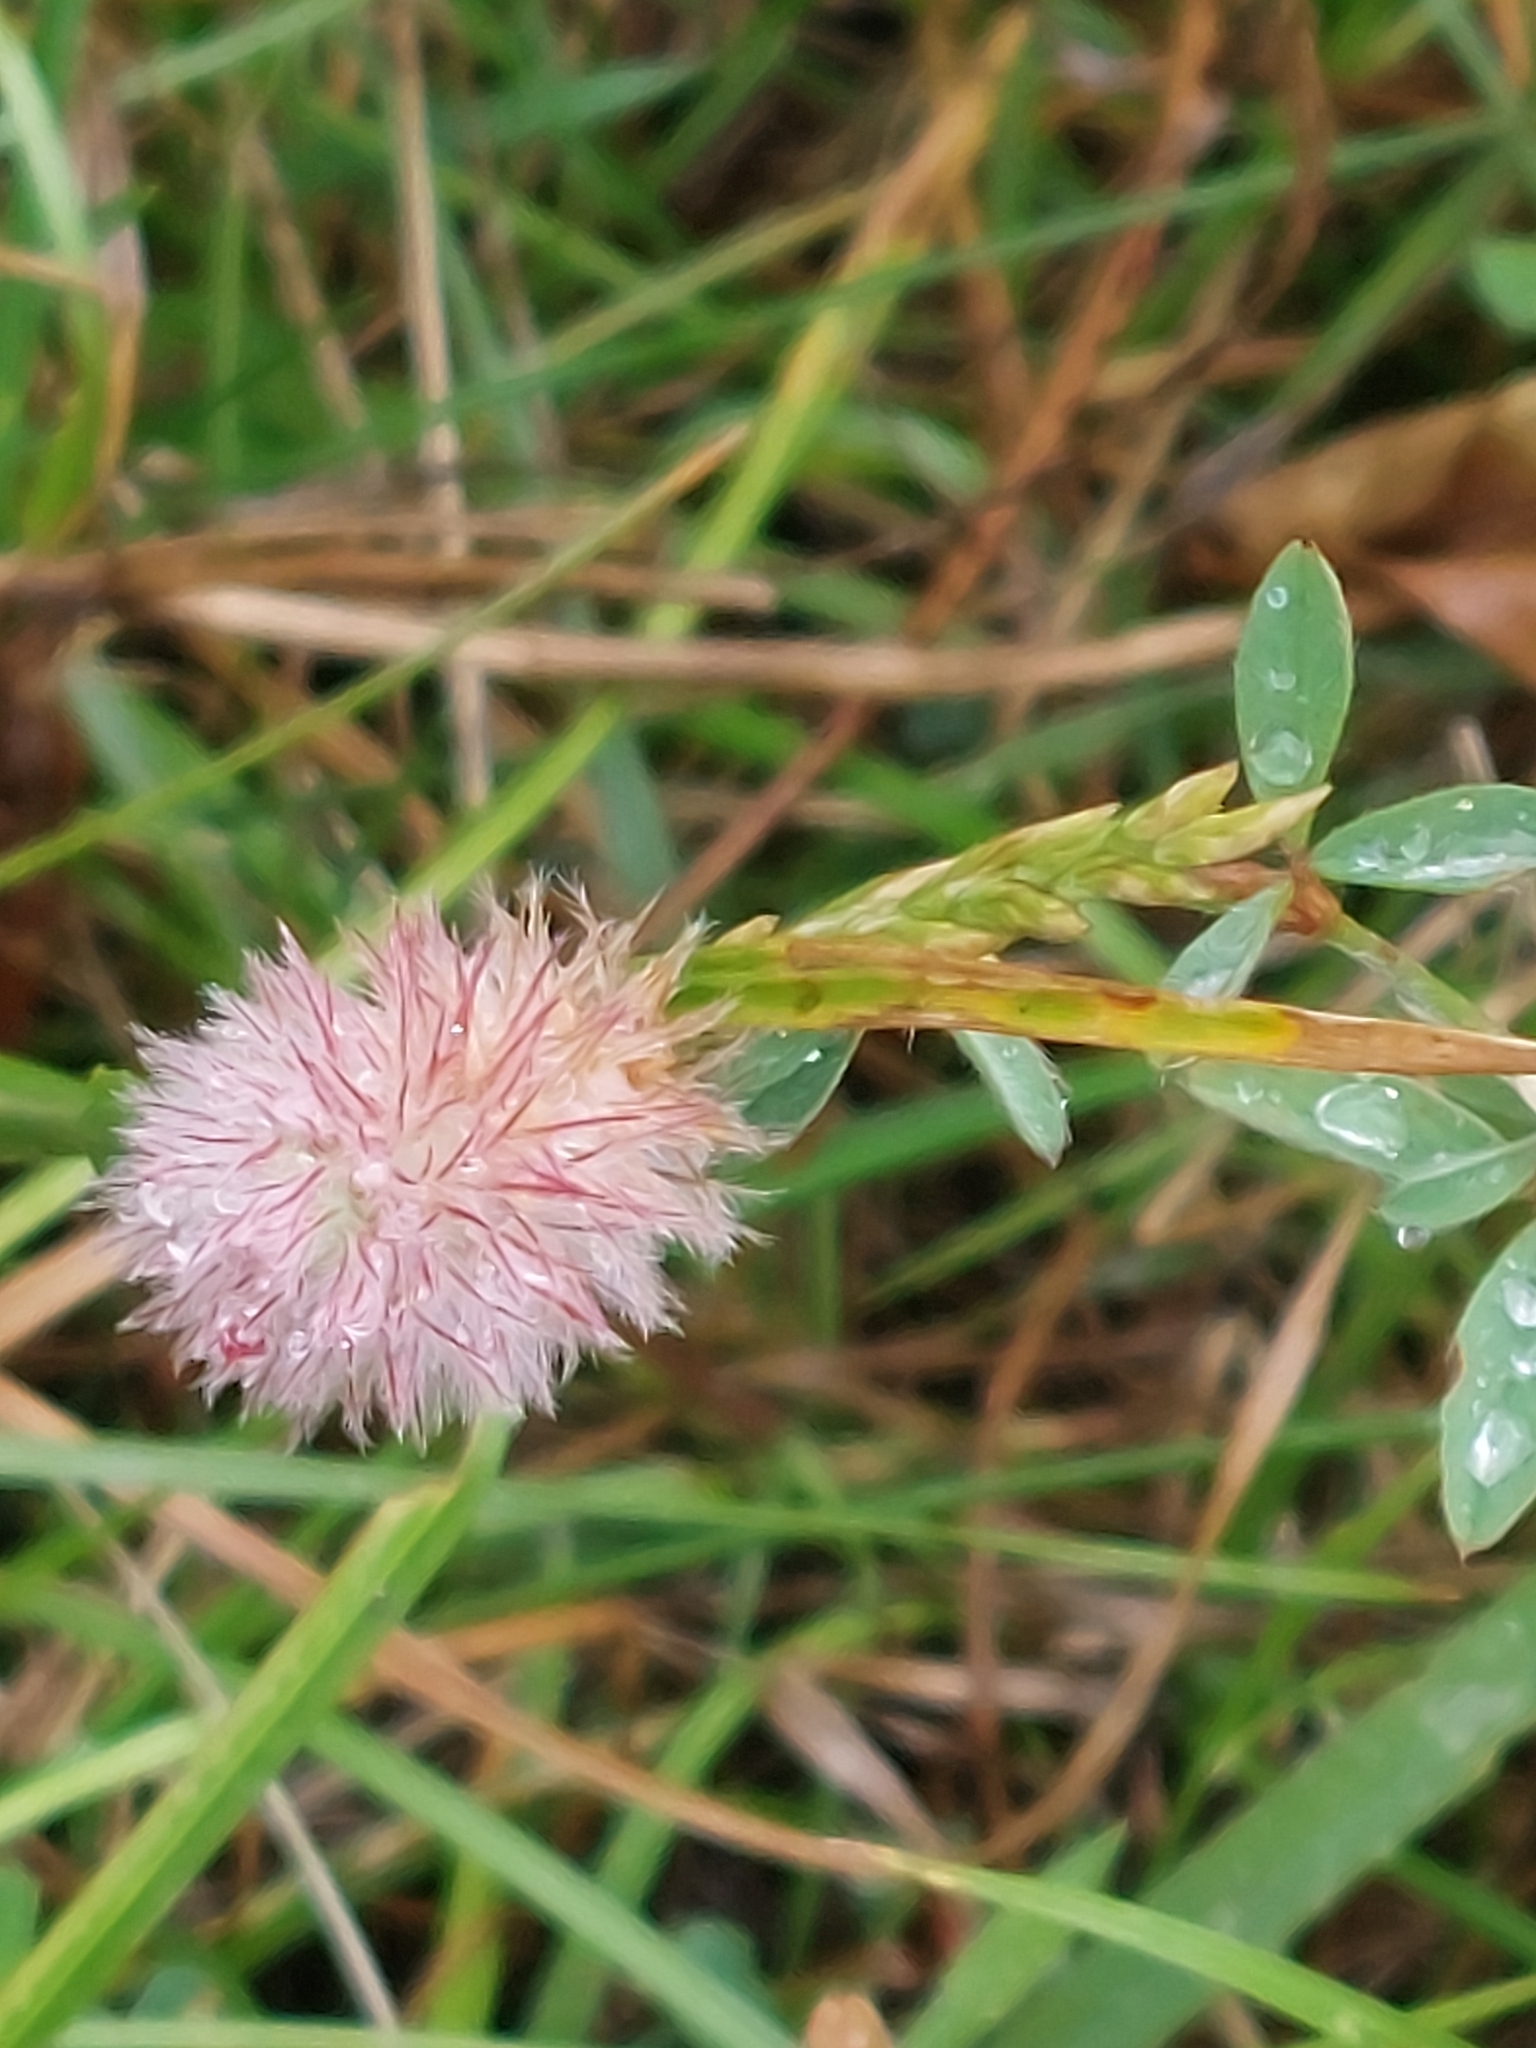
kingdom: Plantae
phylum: Tracheophyta
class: Magnoliopsida
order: Fabales
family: Fabaceae
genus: Trifolium
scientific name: Trifolium arvense
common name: Hare's-foot clover
